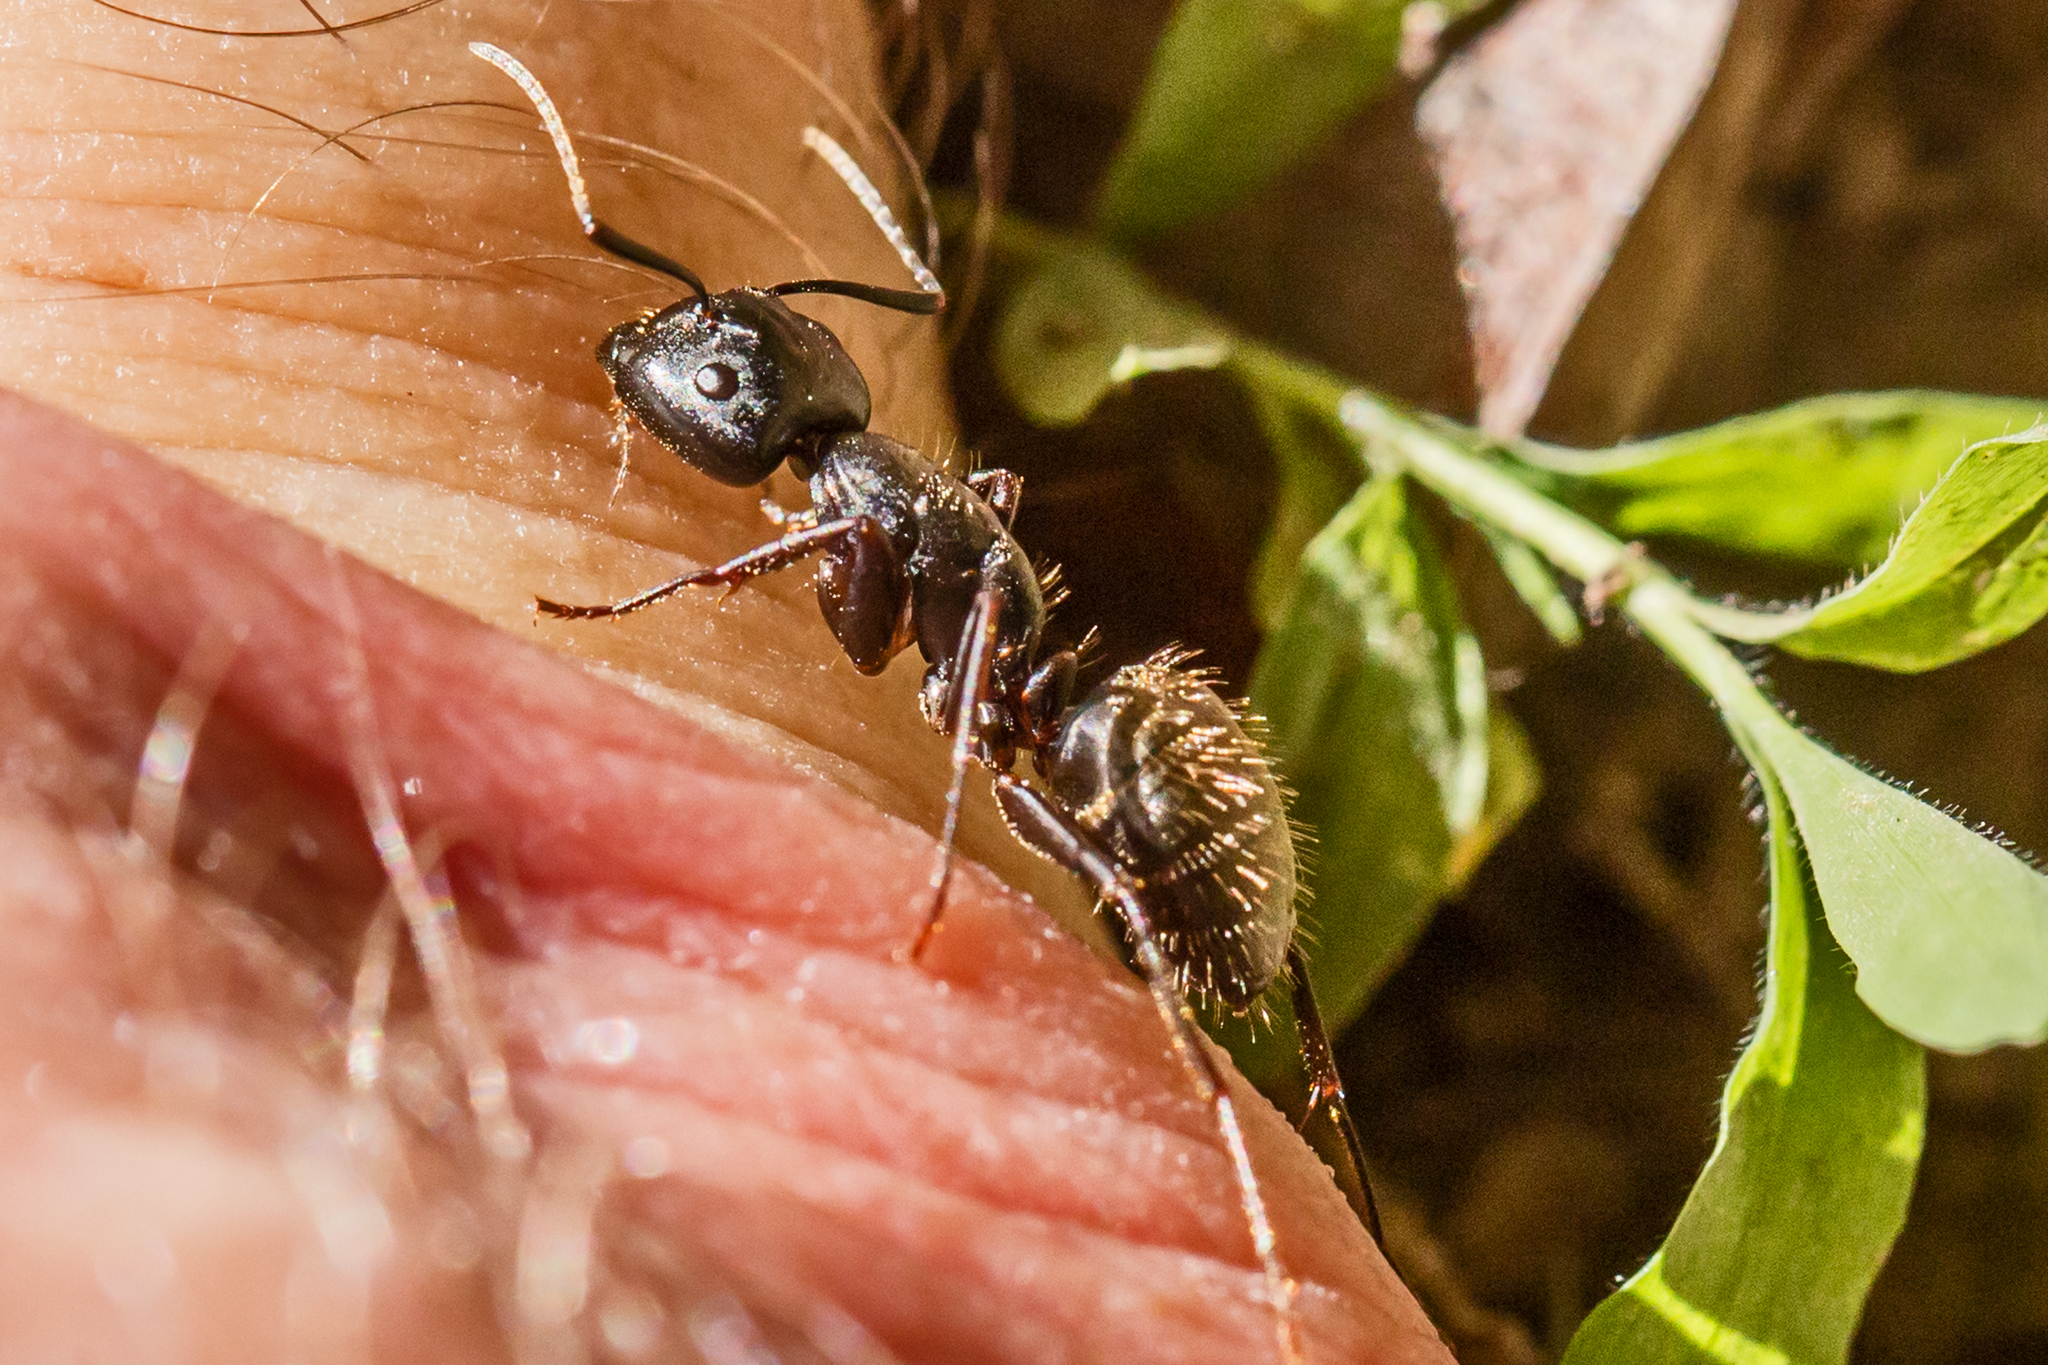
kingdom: Animalia
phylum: Arthropoda
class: Insecta
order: Hymenoptera
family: Formicidae
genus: Camponotus
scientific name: Camponotus pennsylvanicus
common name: Black carpenter ant
